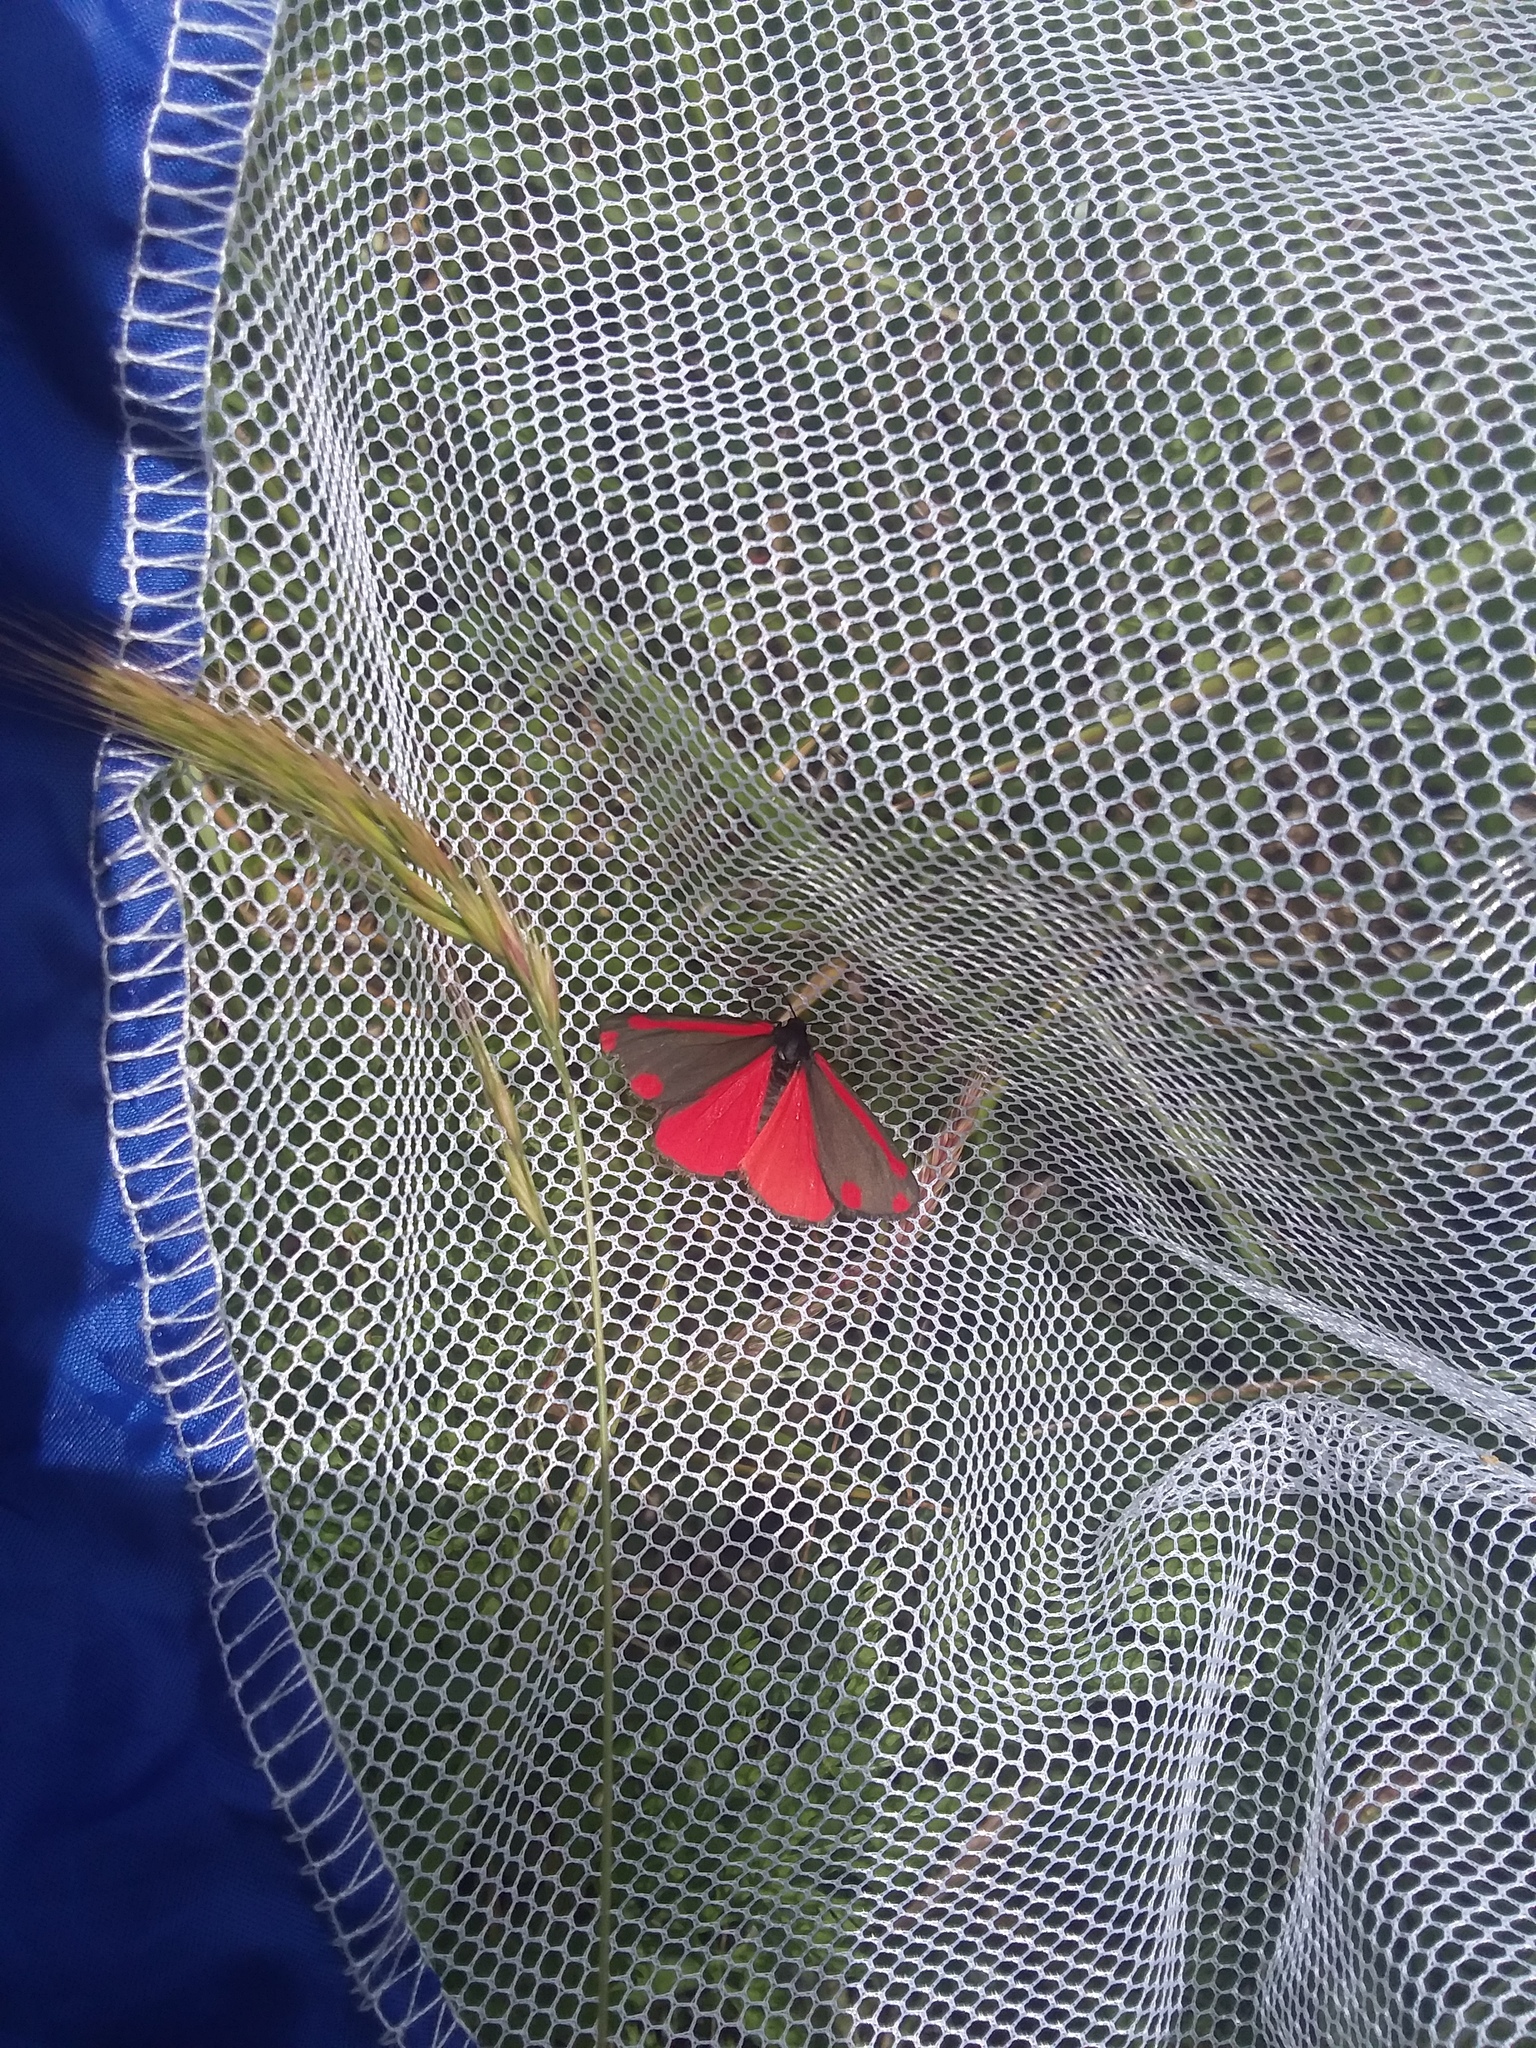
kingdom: Animalia
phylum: Arthropoda
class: Insecta
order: Lepidoptera
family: Erebidae
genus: Tyria
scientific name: Tyria jacobaeae
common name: Cinnabar
